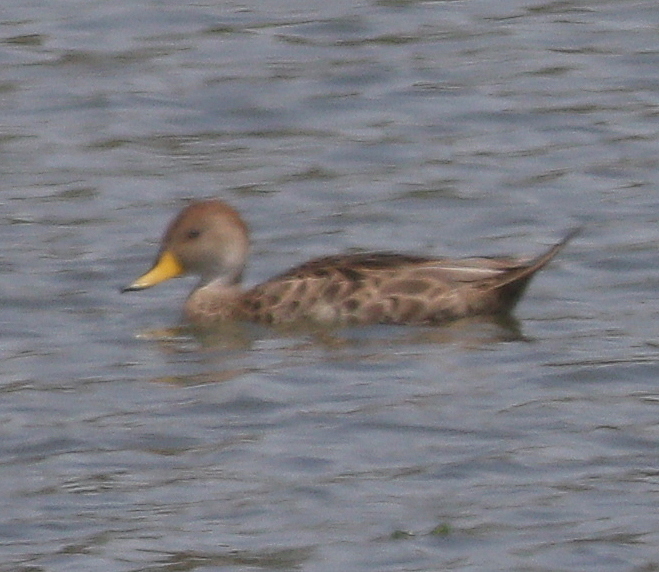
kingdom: Animalia
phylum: Chordata
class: Aves
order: Anseriformes
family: Anatidae
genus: Anas
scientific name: Anas georgica
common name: Yellow-billed pintail
